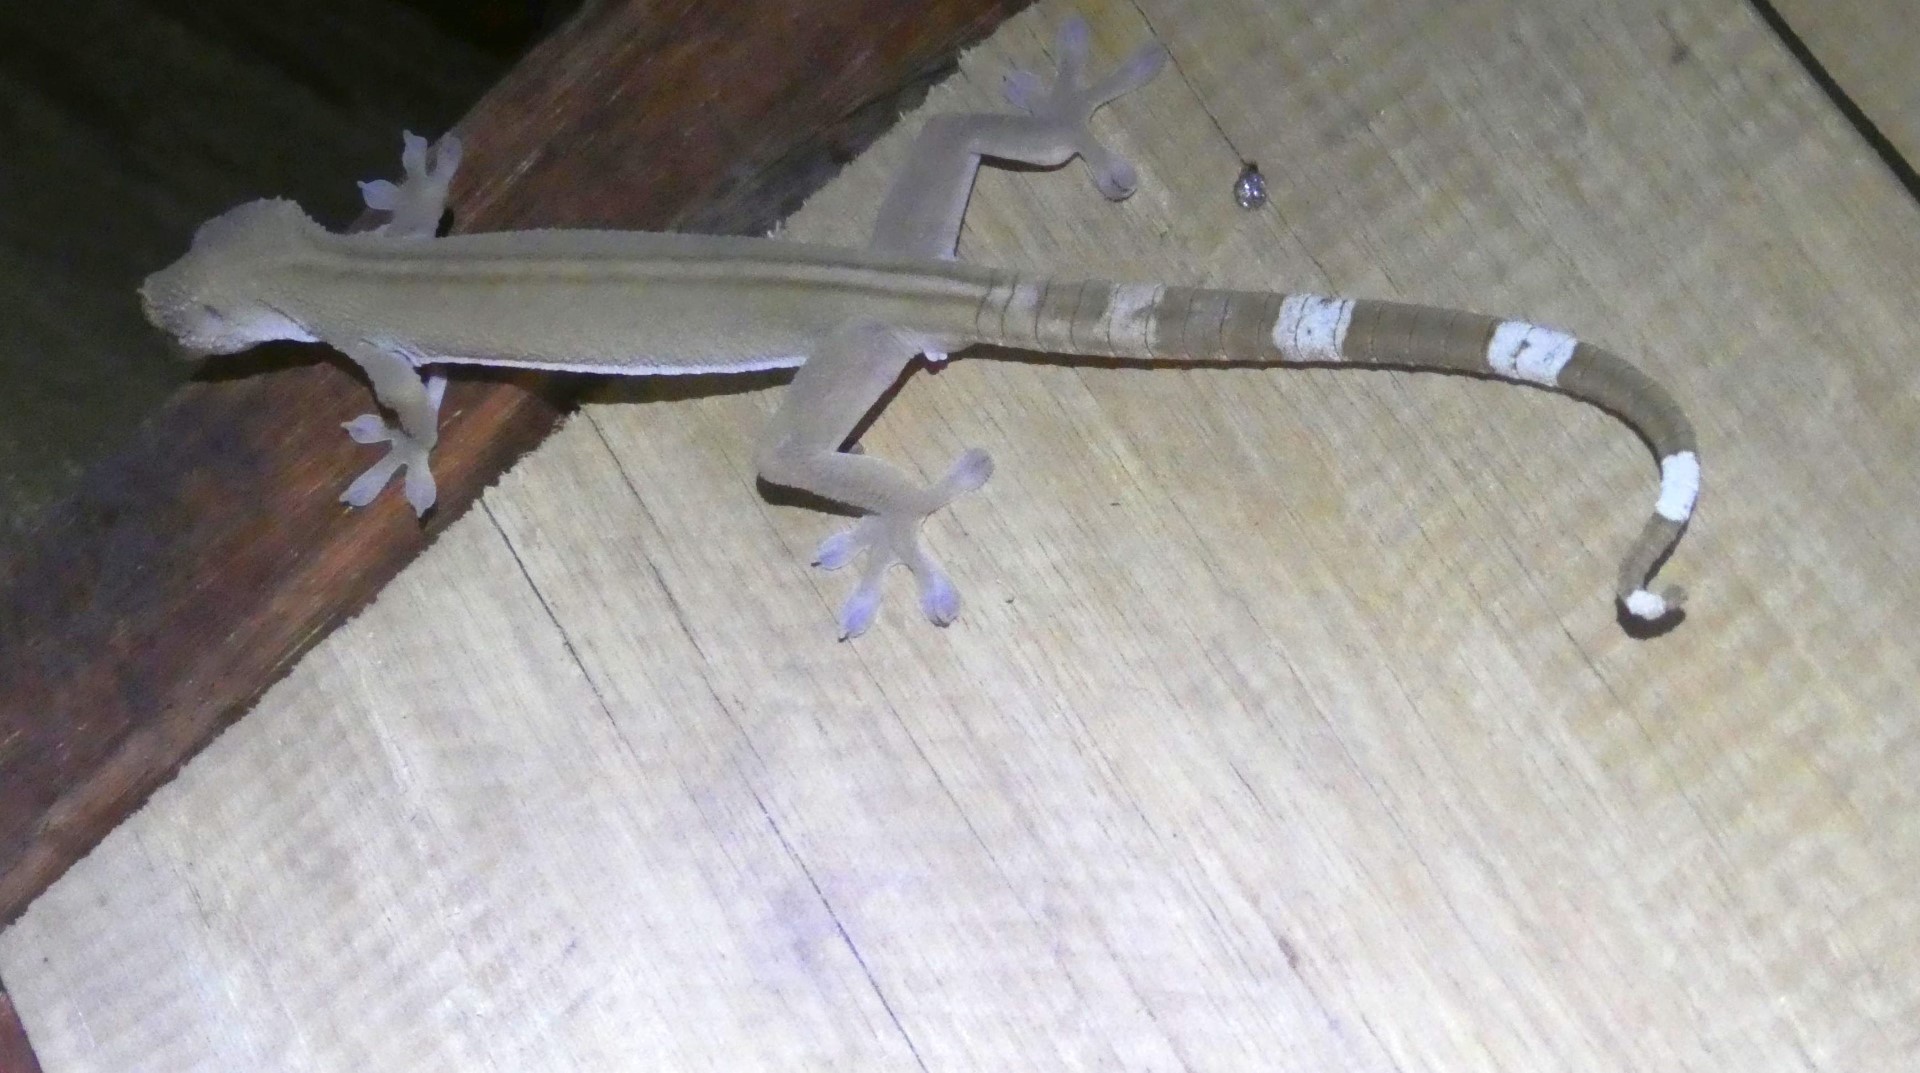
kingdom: Animalia
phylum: Chordata
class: Squamata
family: Gekkonidae
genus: Gekko
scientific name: Gekko vittatus
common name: Indo-pacific ghost gecko
